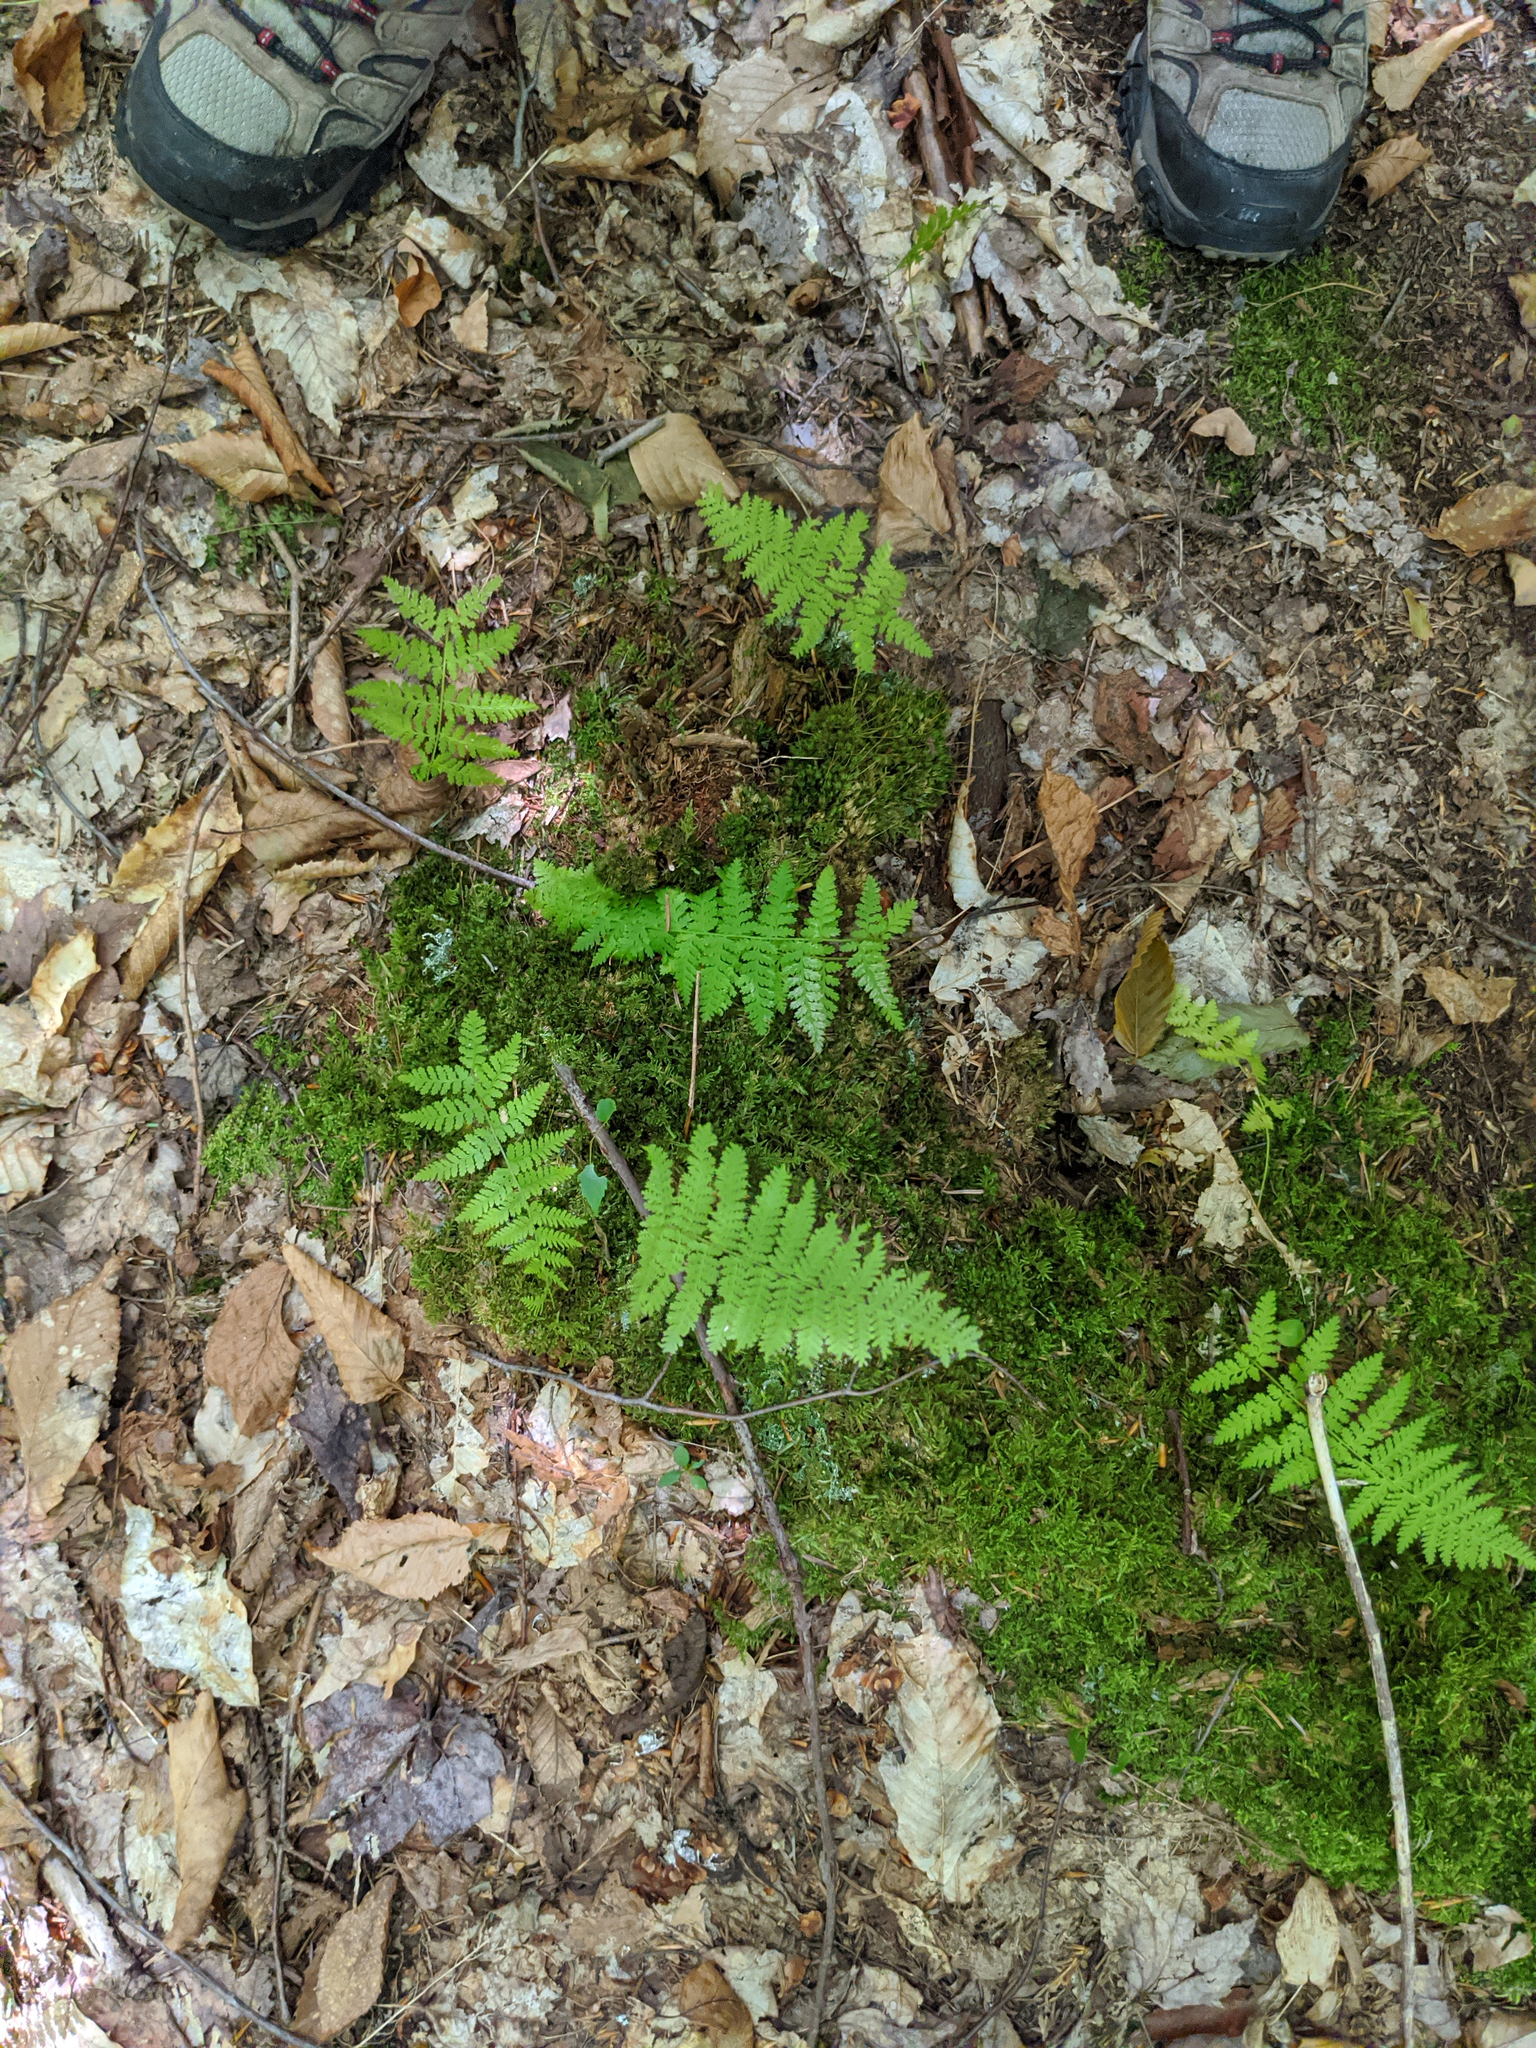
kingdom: Plantae
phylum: Tracheophyta
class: Polypodiopsida
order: Polypodiales
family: Dennstaedtiaceae
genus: Sitobolium
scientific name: Sitobolium punctilobum
